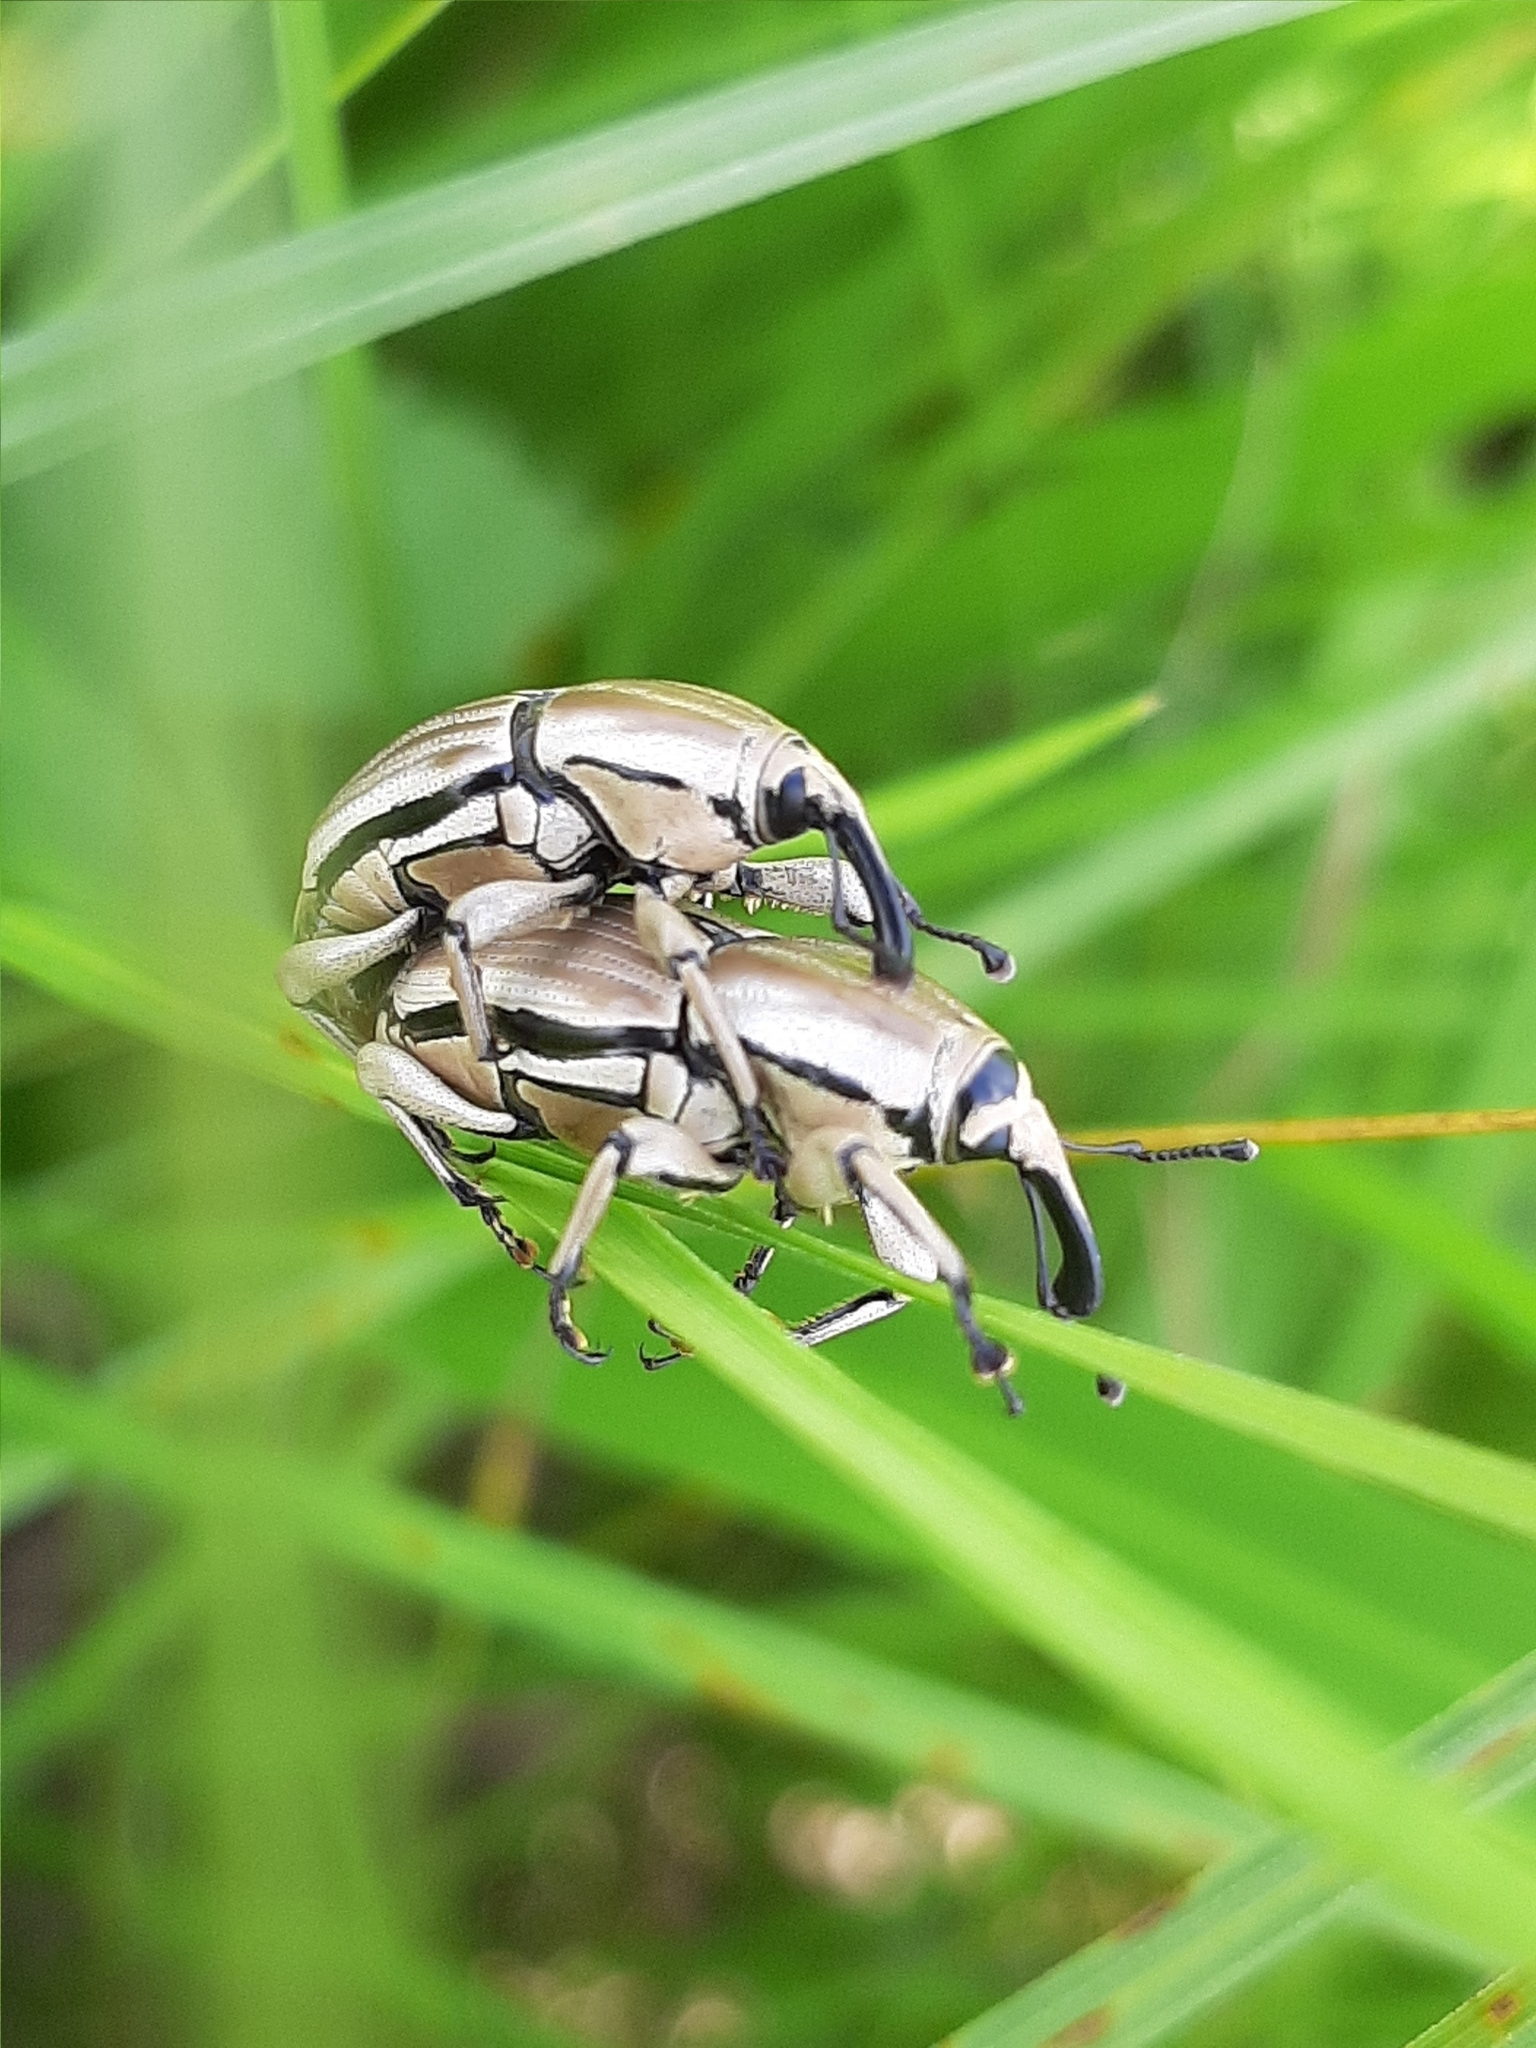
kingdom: Animalia
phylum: Arthropoda
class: Insecta
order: Coleoptera
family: Dryophthoridae
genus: Sphenophorus
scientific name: Sphenophorus aequalis
